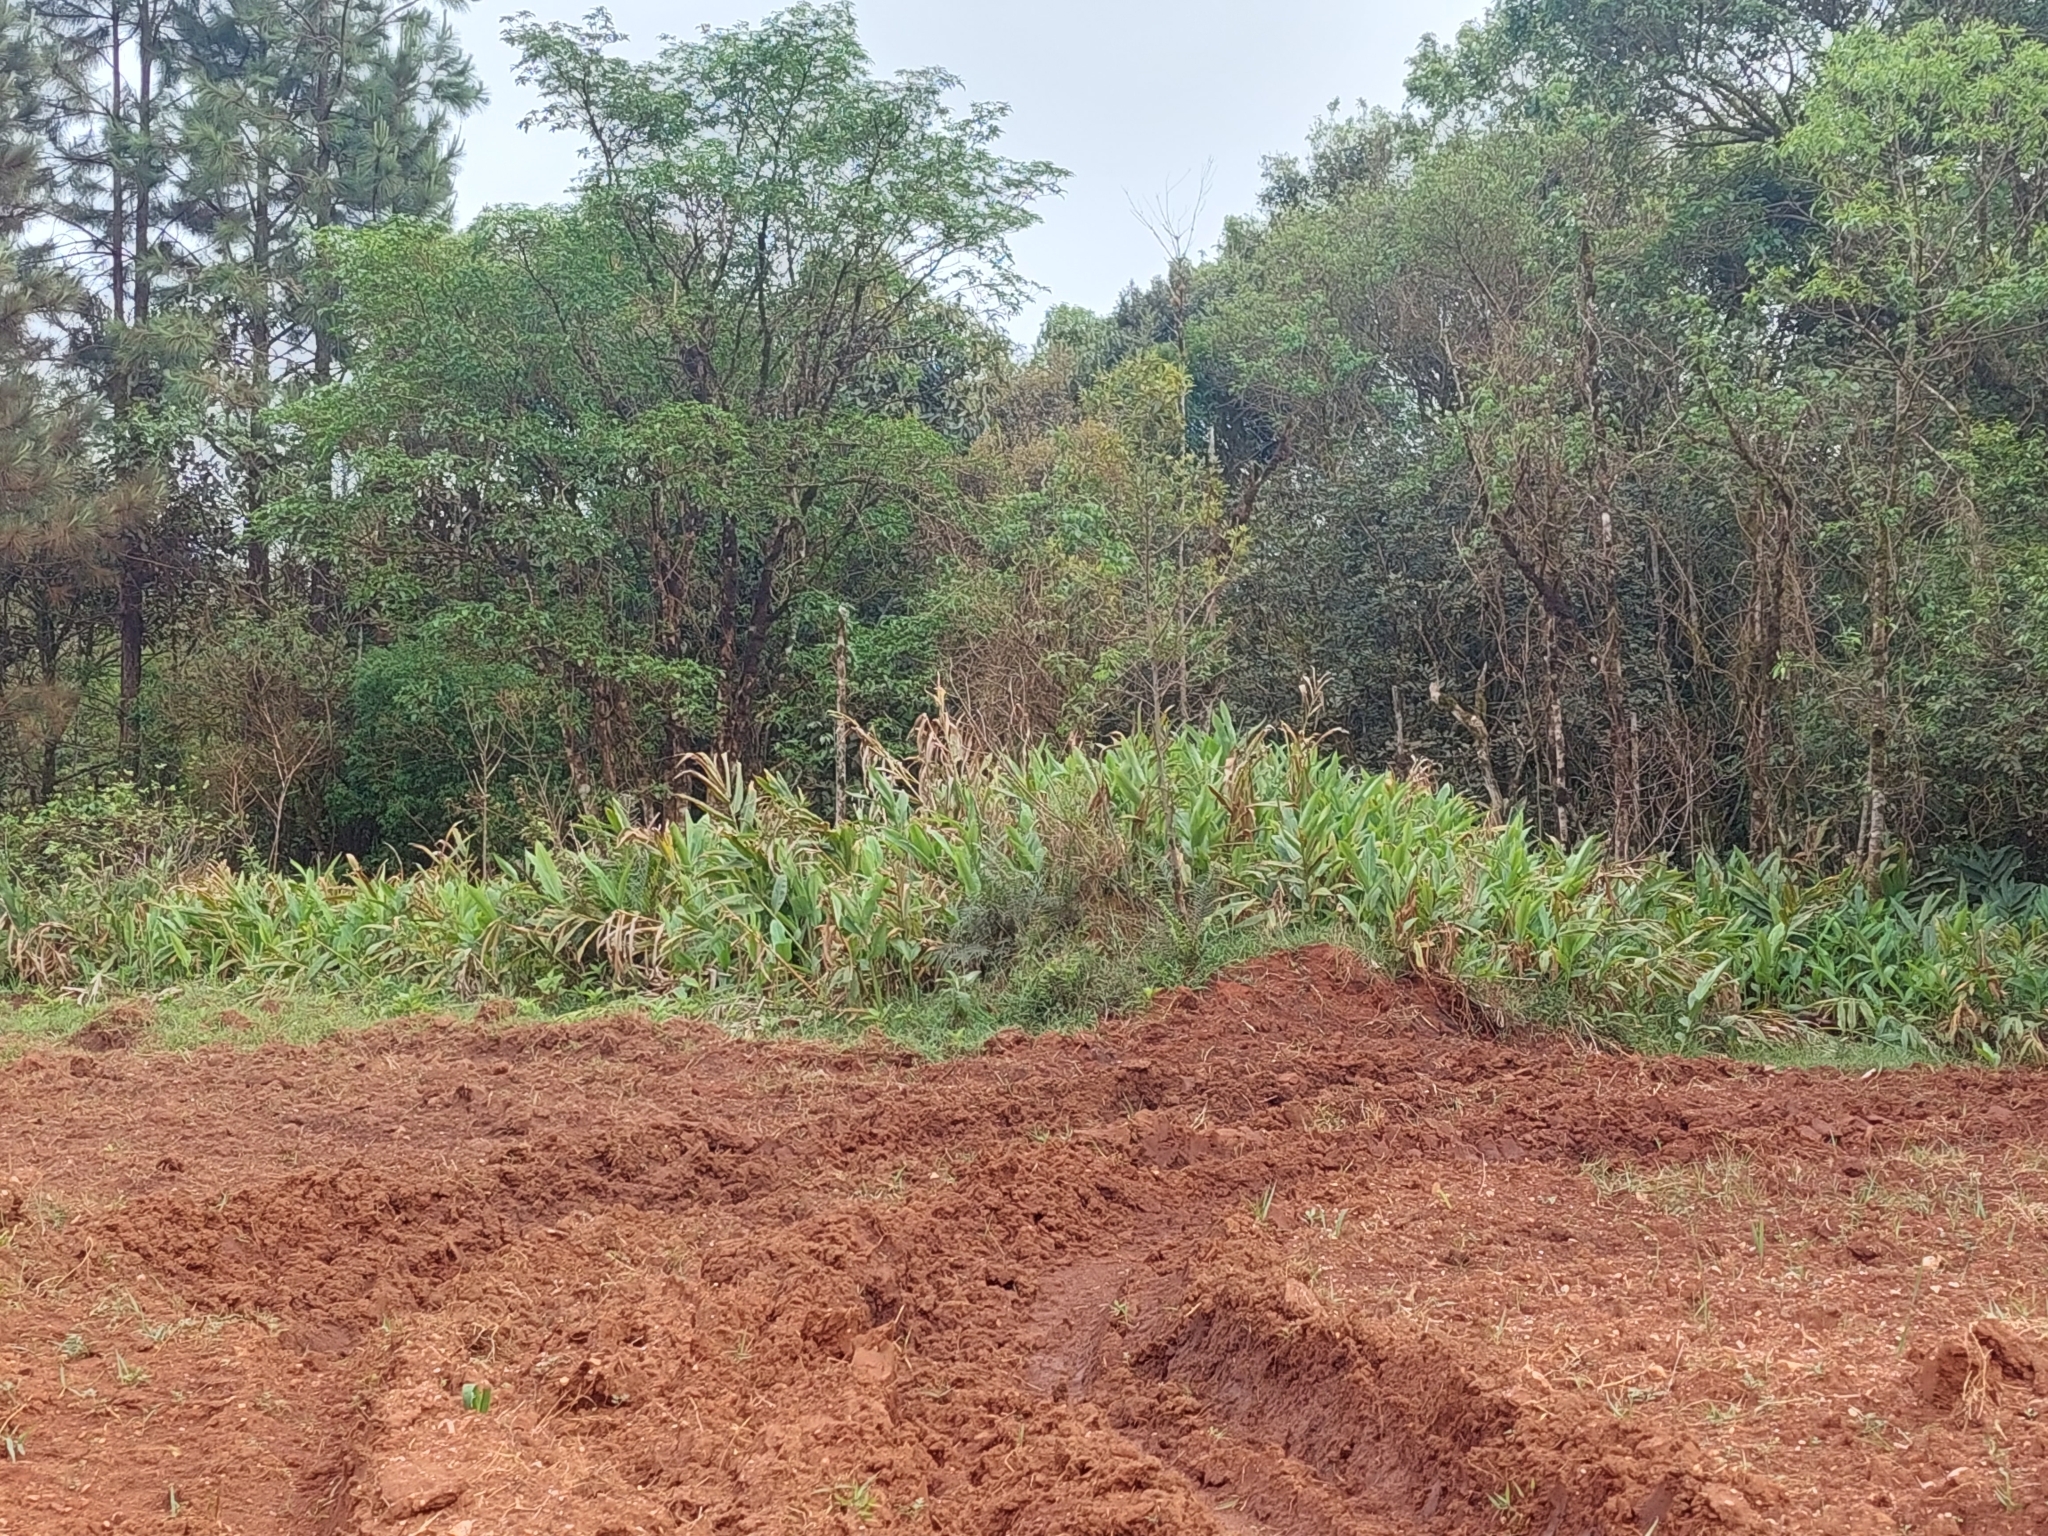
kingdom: Plantae
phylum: Tracheophyta
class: Liliopsida
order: Zingiberales
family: Zingiberaceae
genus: Hedychium
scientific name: Hedychium coronarium
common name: White garland-lily
